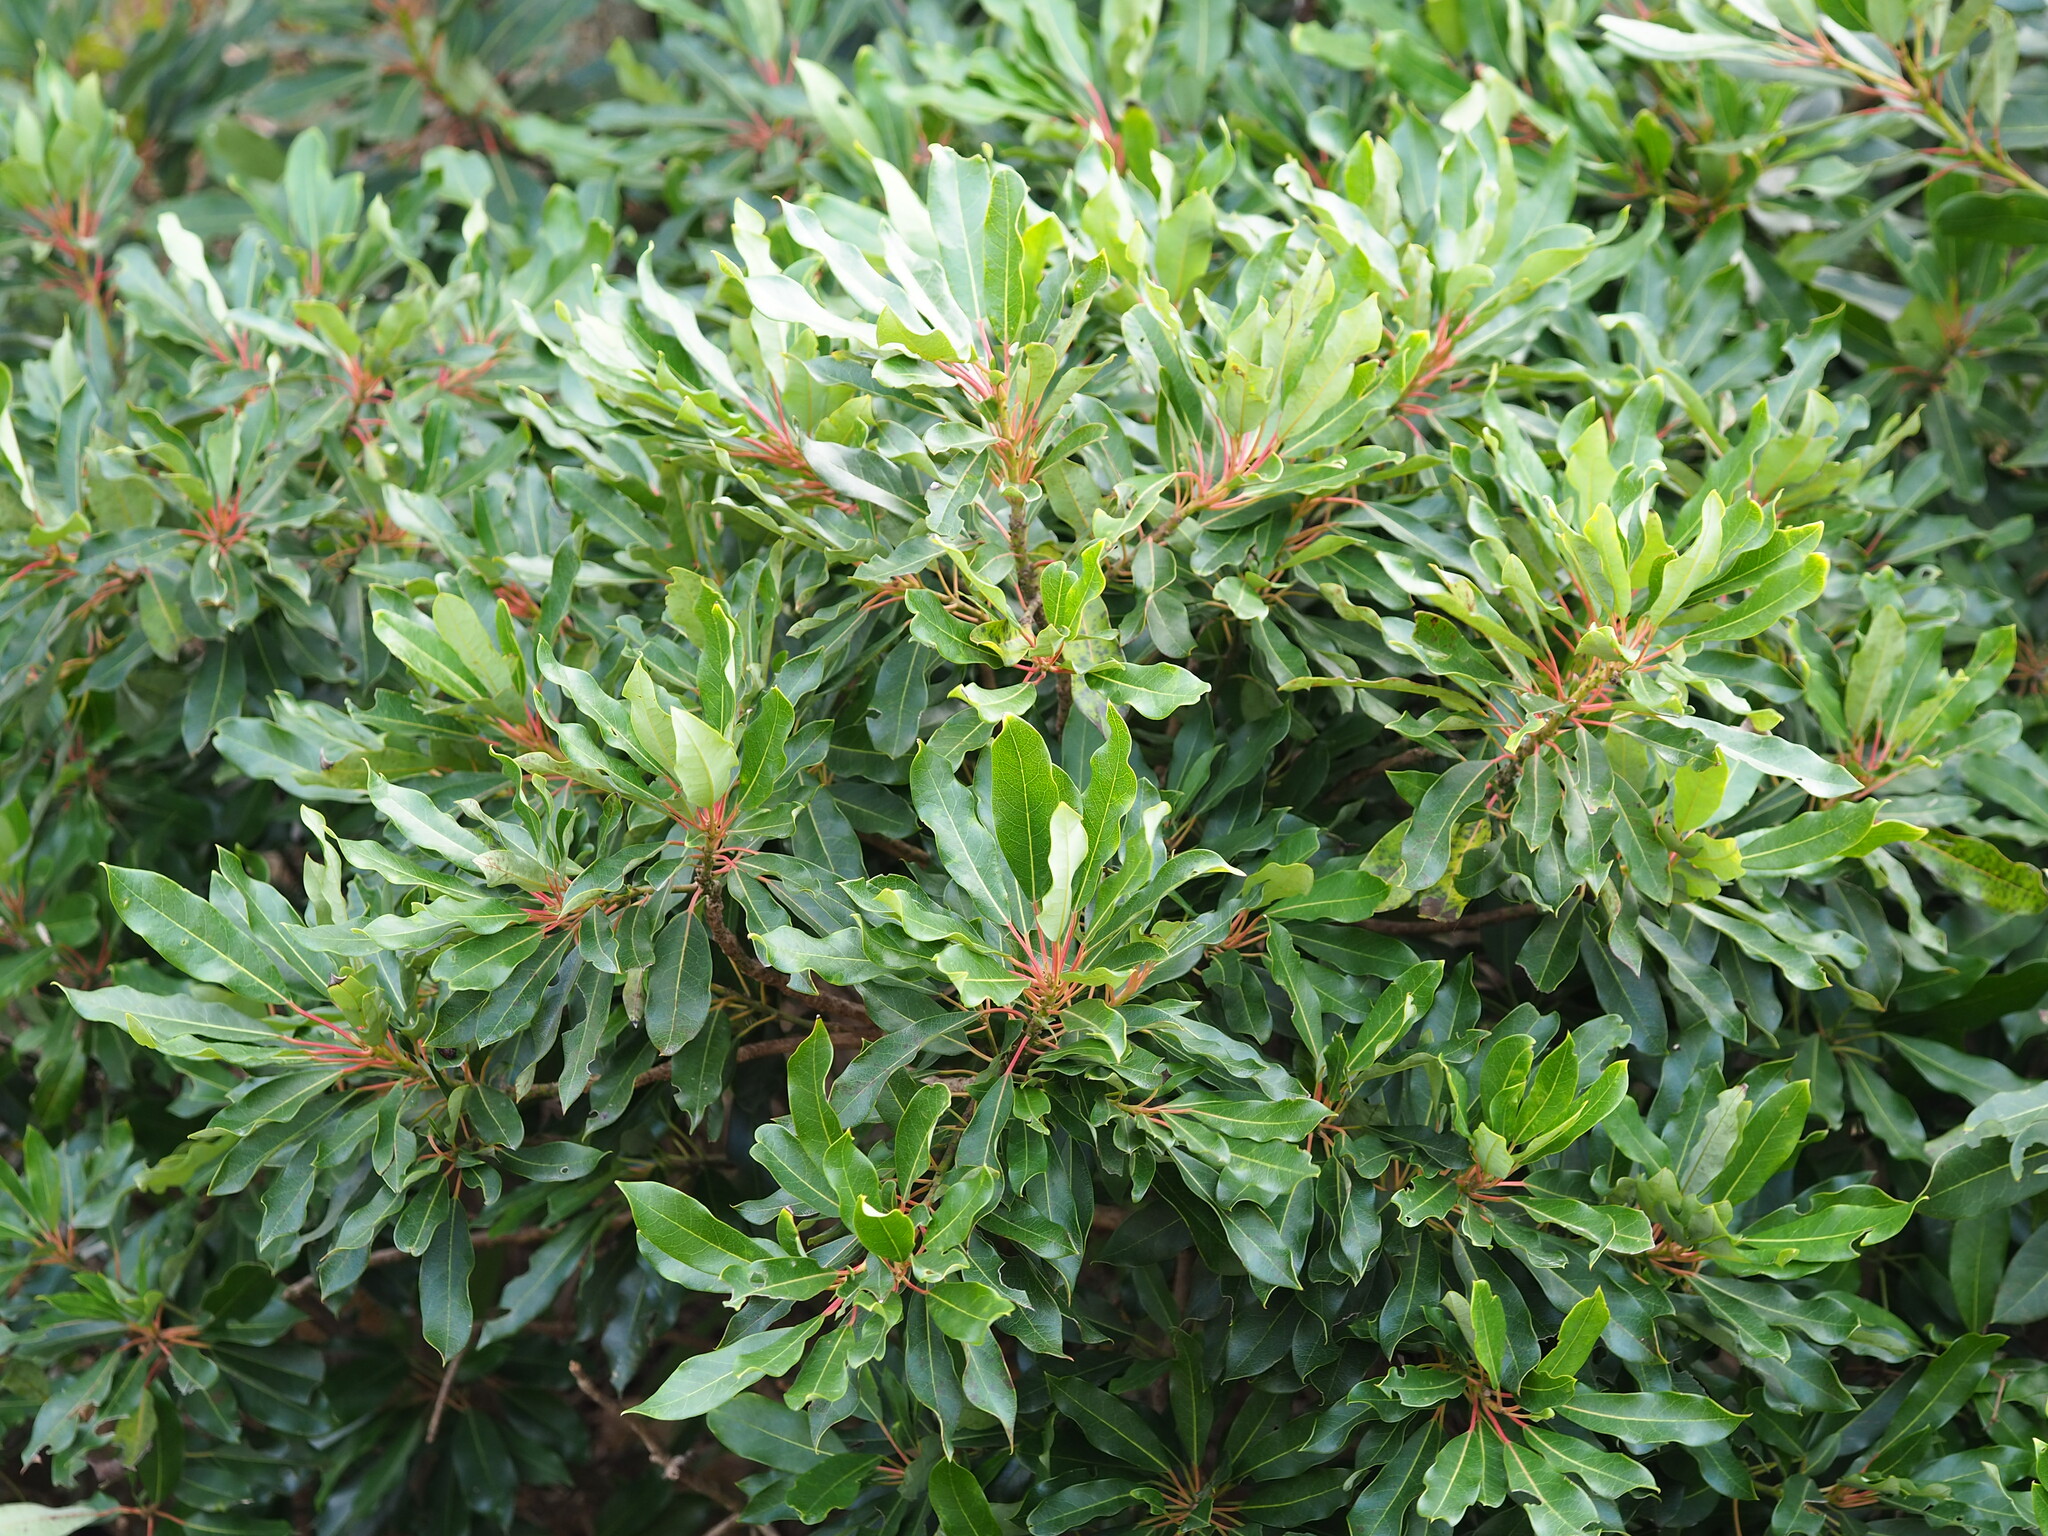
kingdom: Plantae
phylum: Tracheophyta
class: Magnoliopsida
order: Saxifragales
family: Daphniphyllaceae
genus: Daphniphyllum
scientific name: Daphniphyllum pentandrum
